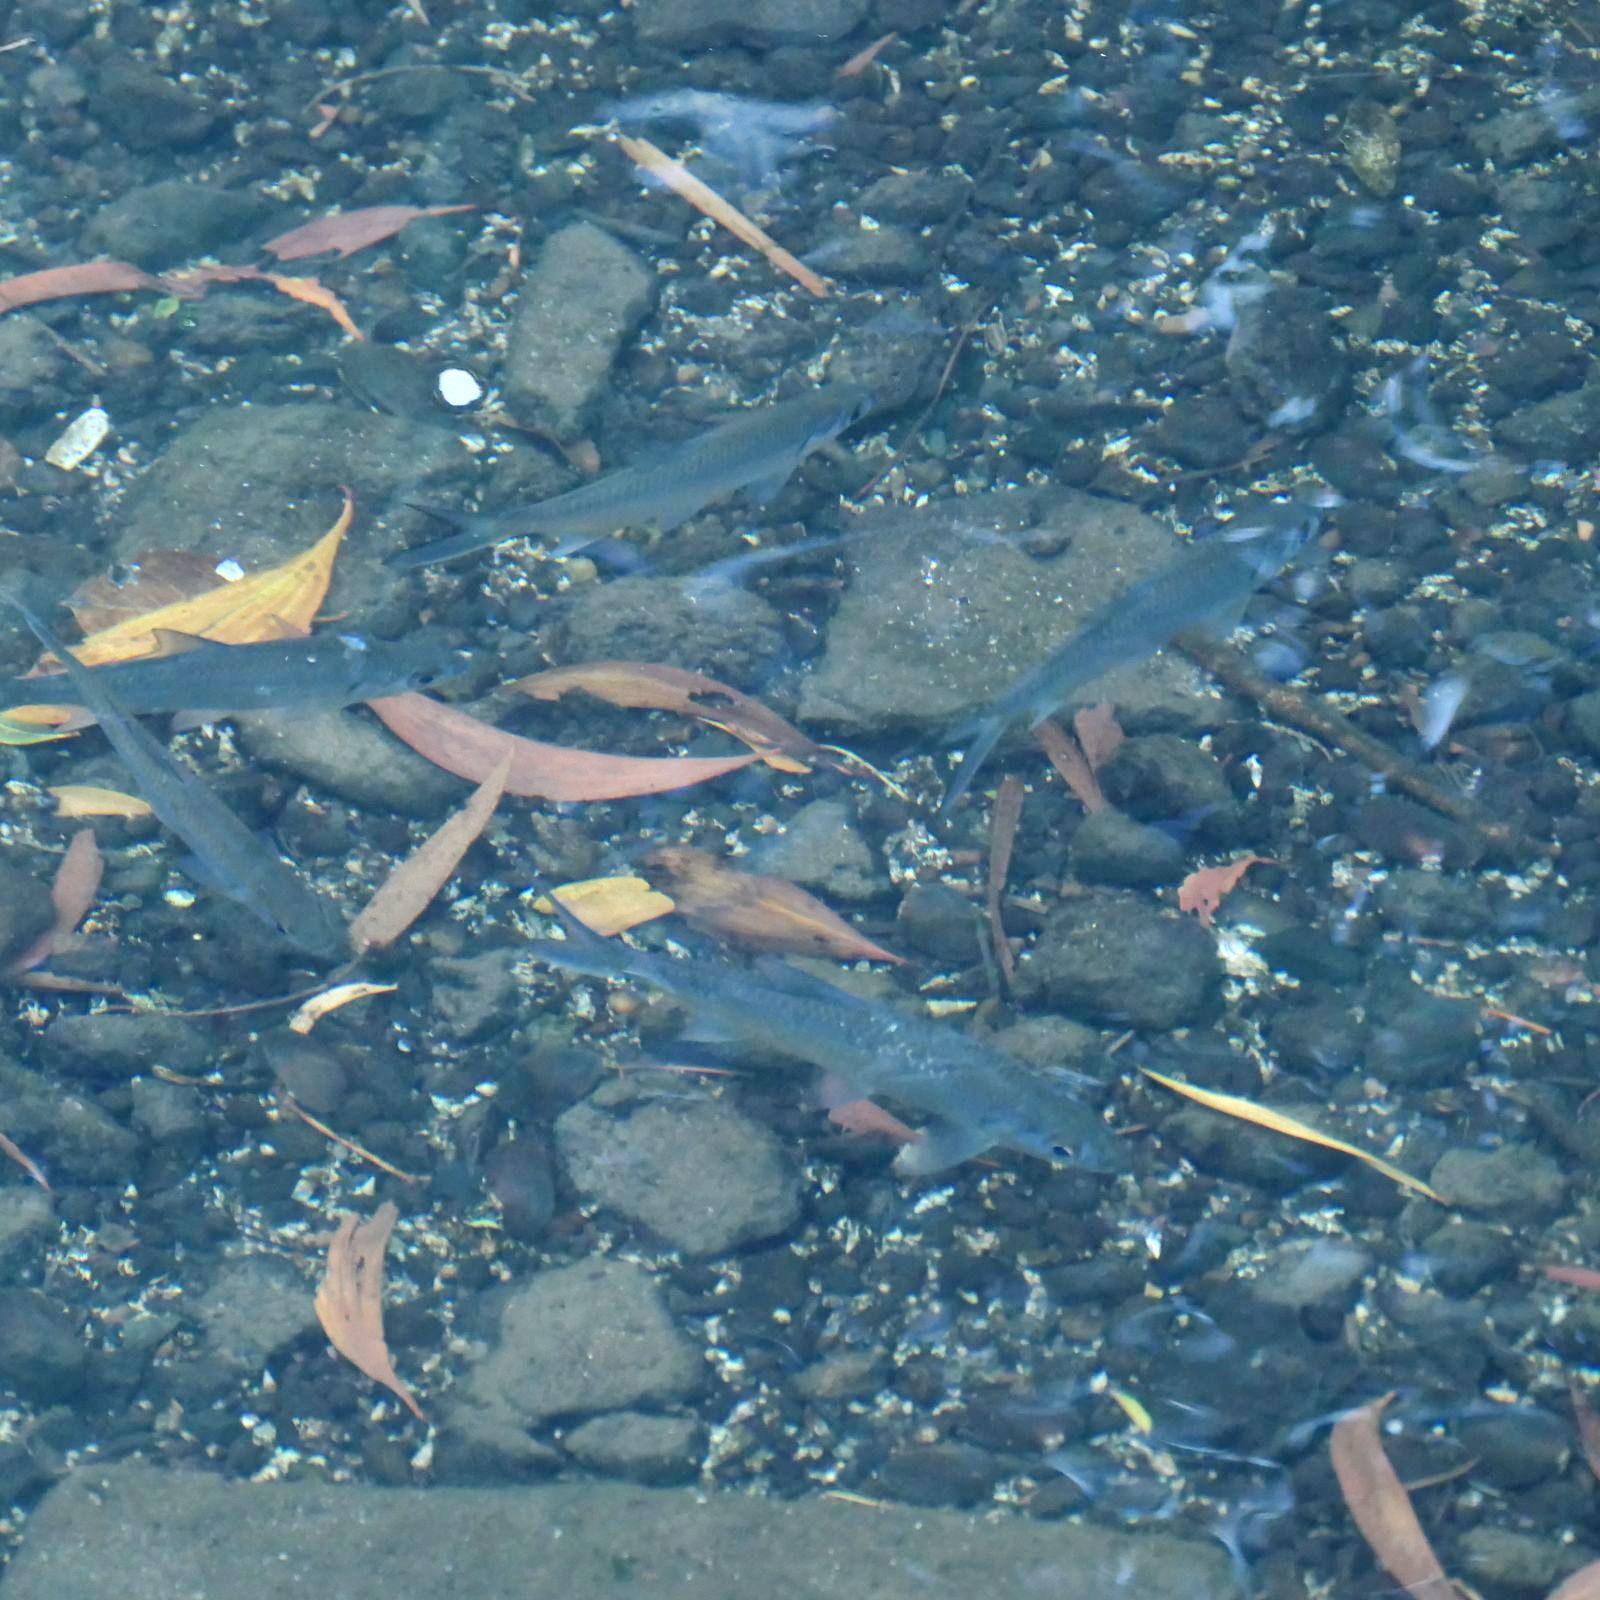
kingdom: Animalia
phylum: Chordata
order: Elopiformes
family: Megalopidae
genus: Megalops
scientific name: Megalops cyprinoides
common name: Indo-pacific tarpon
